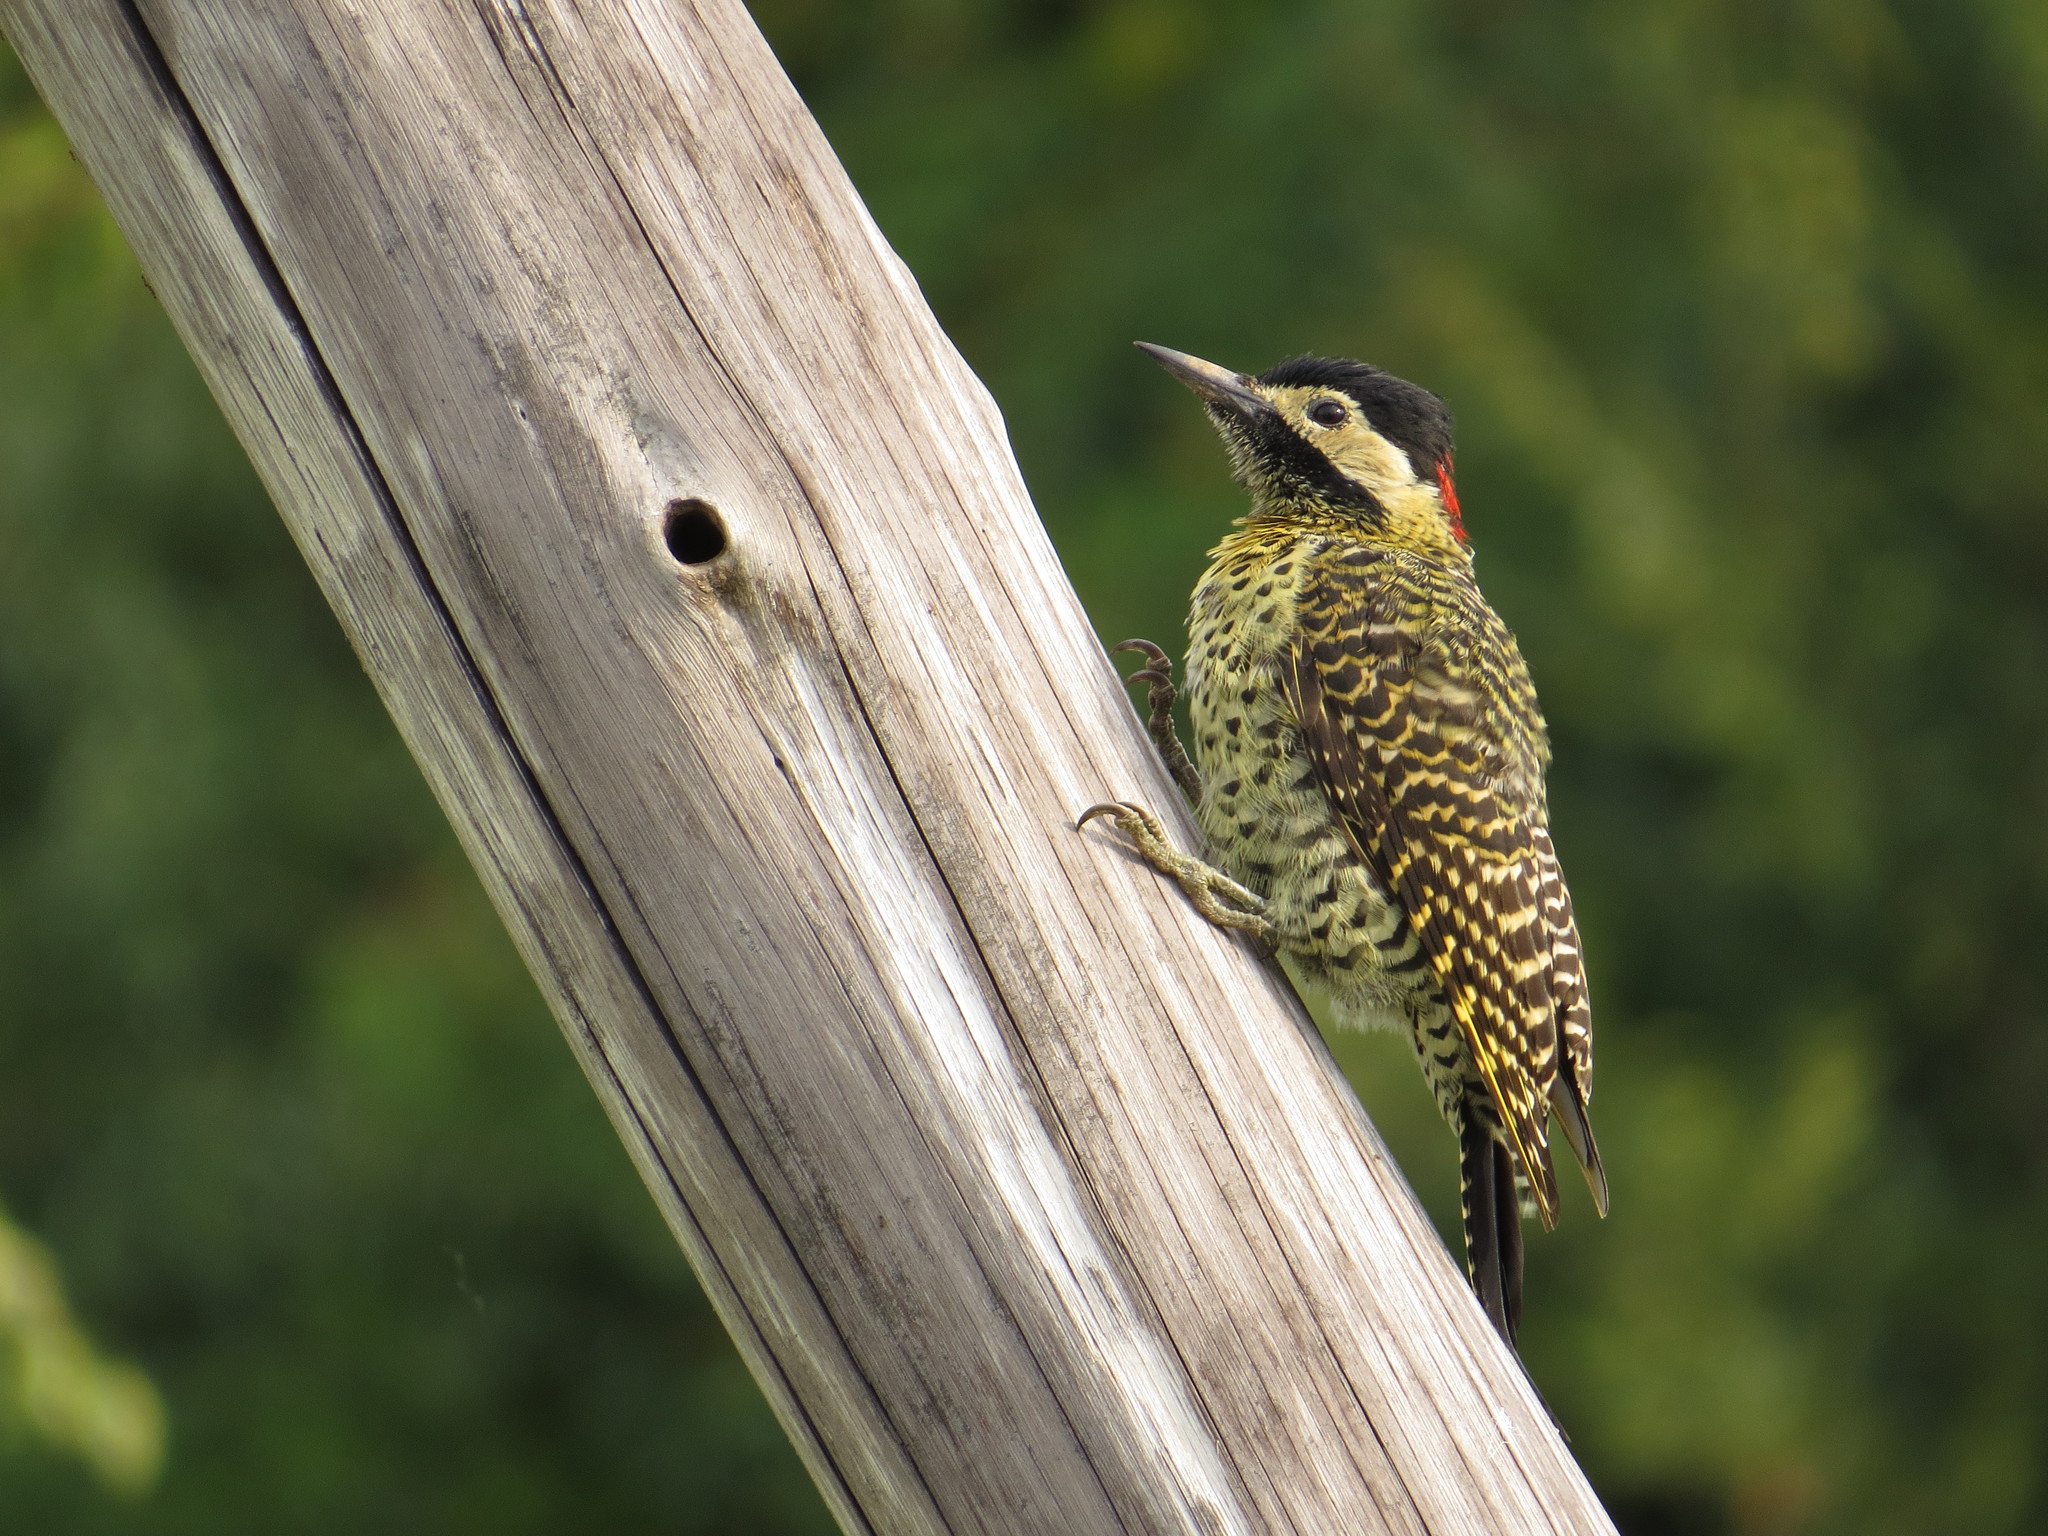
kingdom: Animalia
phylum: Chordata
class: Aves
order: Piciformes
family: Picidae
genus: Colaptes
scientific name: Colaptes melanochloros
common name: Green-barred woodpecker
